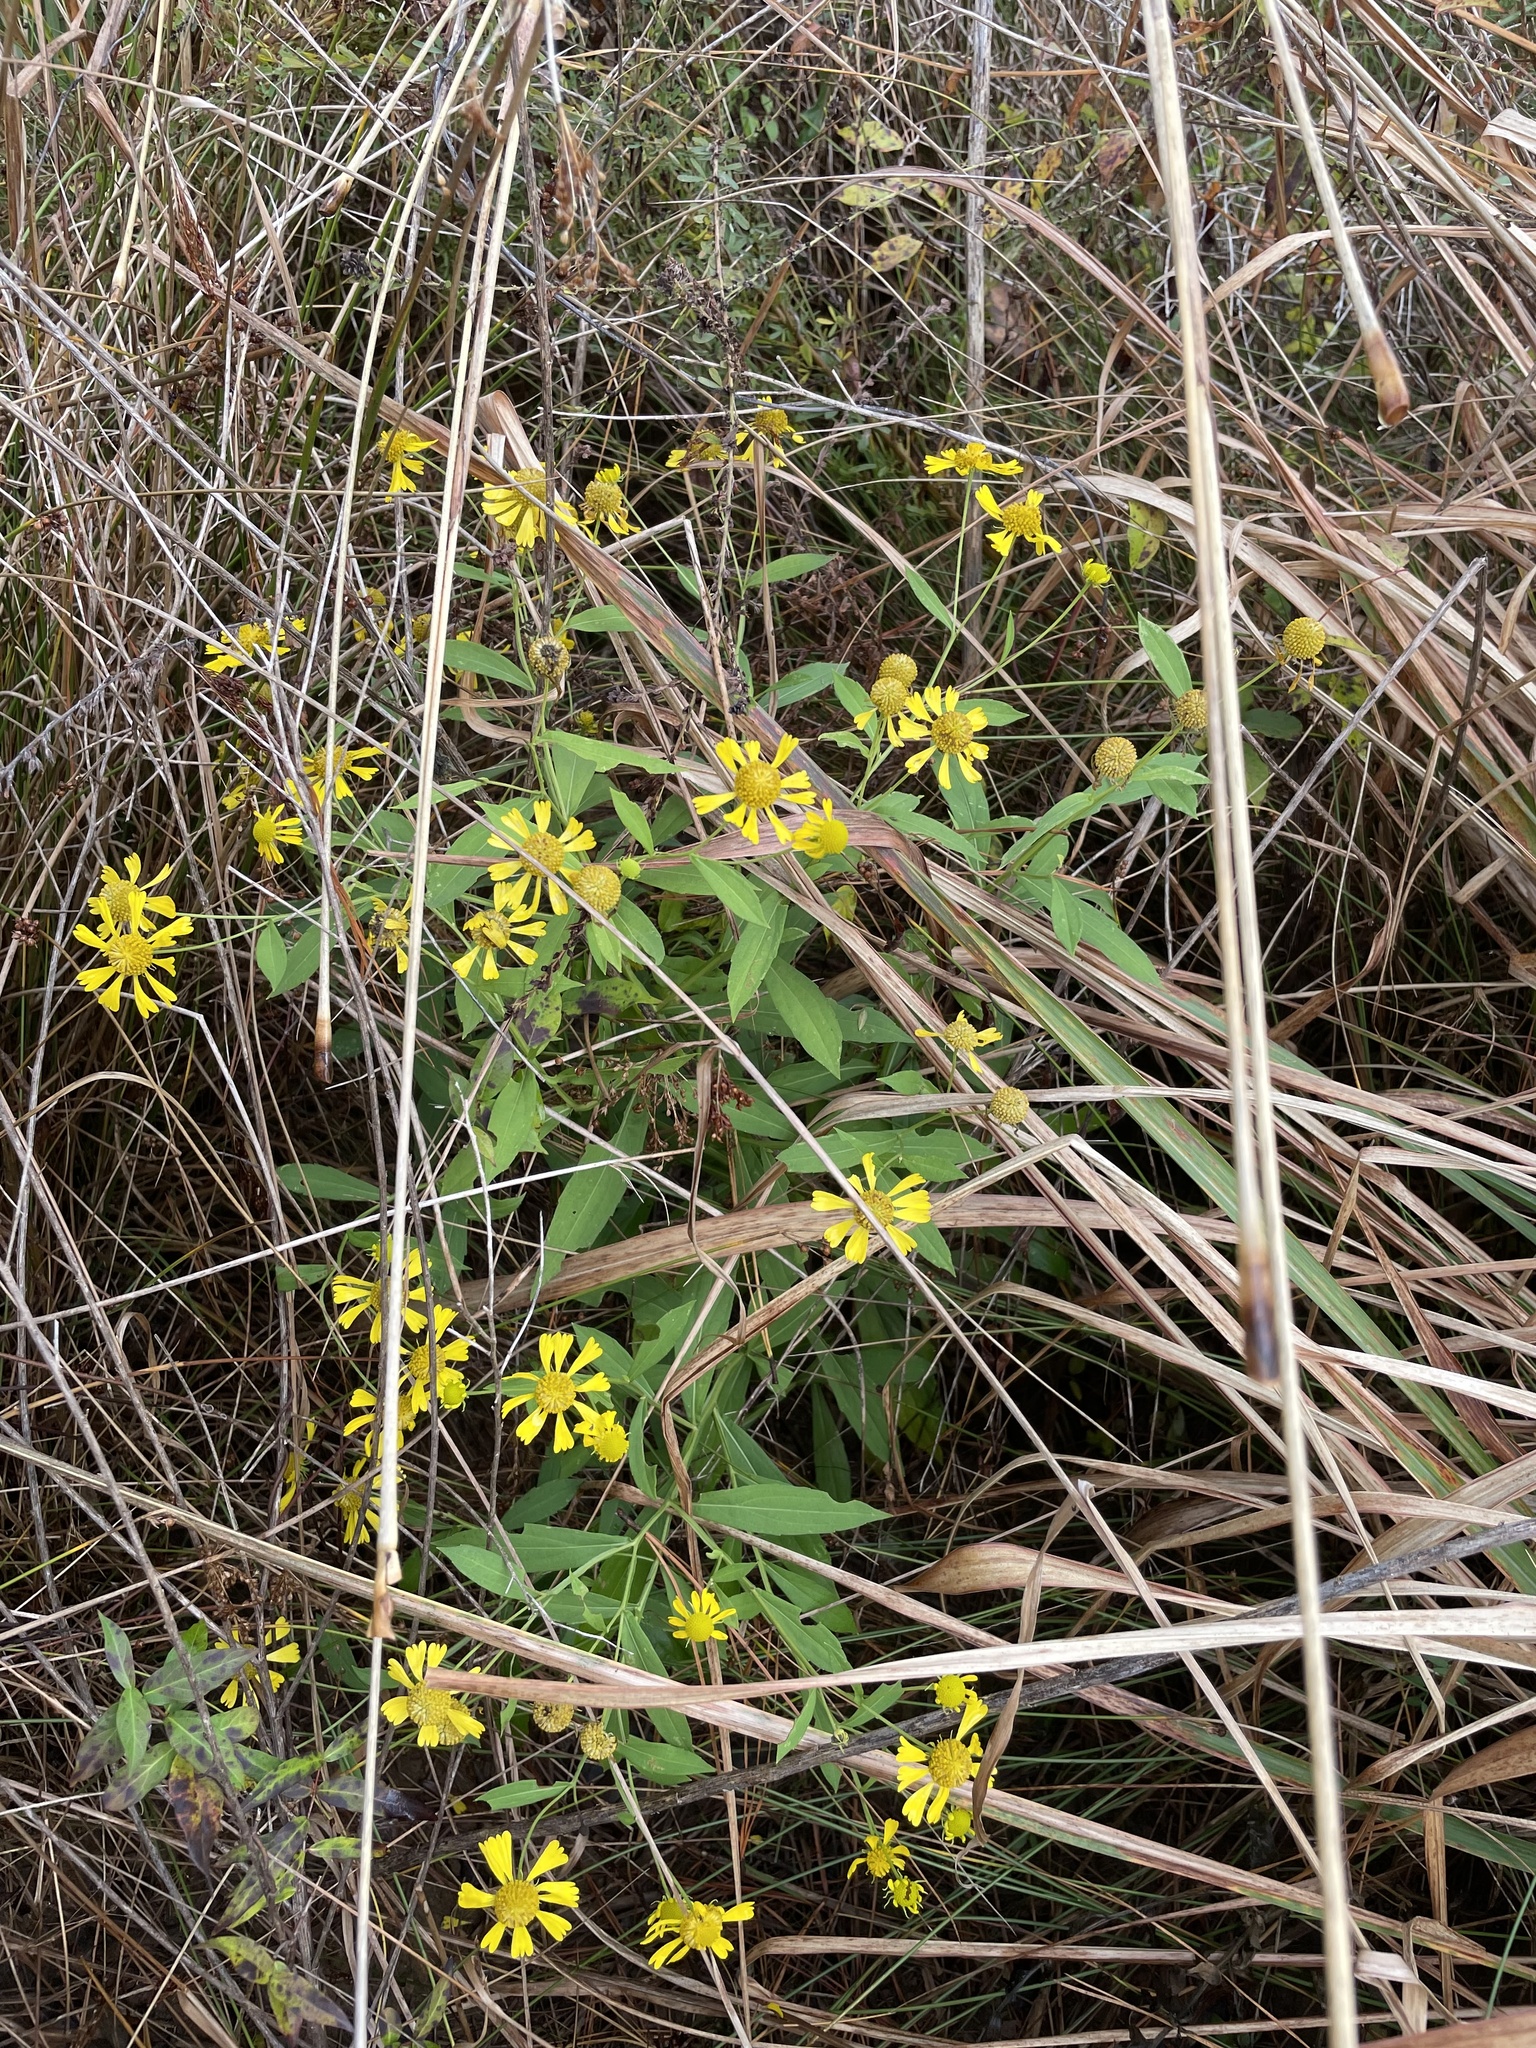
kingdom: Plantae
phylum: Tracheophyta
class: Magnoliopsida
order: Asterales
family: Asteraceae
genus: Helenium
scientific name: Helenium autumnale
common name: Sneezeweed
